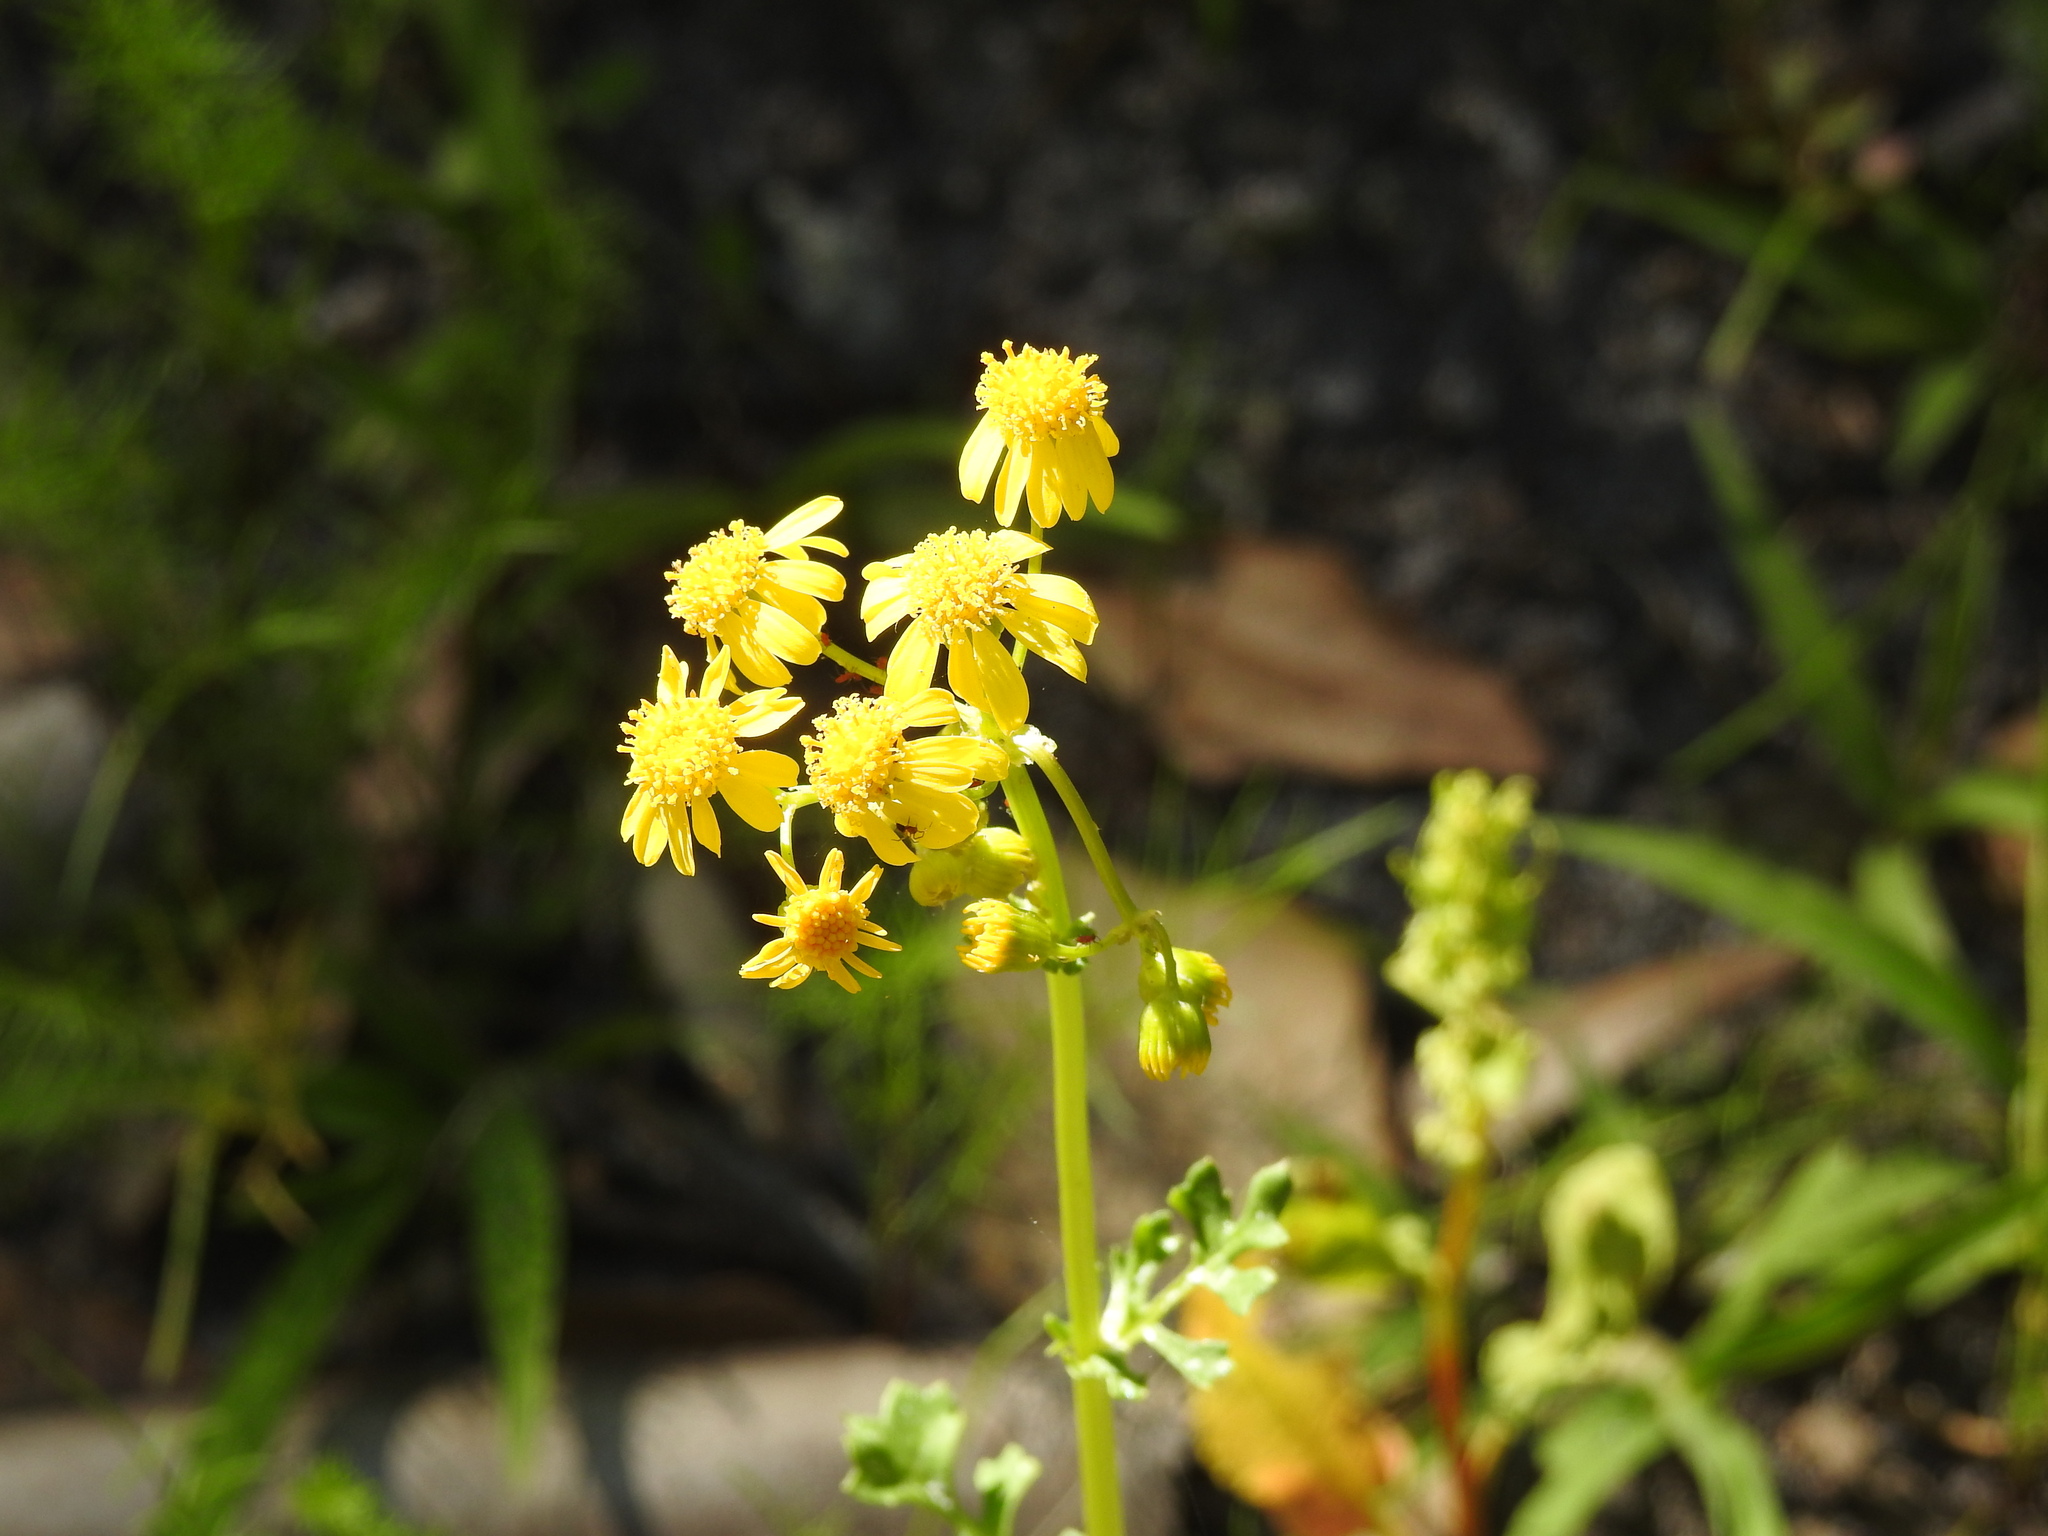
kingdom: Plantae
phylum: Tracheophyta
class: Magnoliopsida
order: Asterales
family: Asteraceae
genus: Packera
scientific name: Packera glabella
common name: Butterweed
